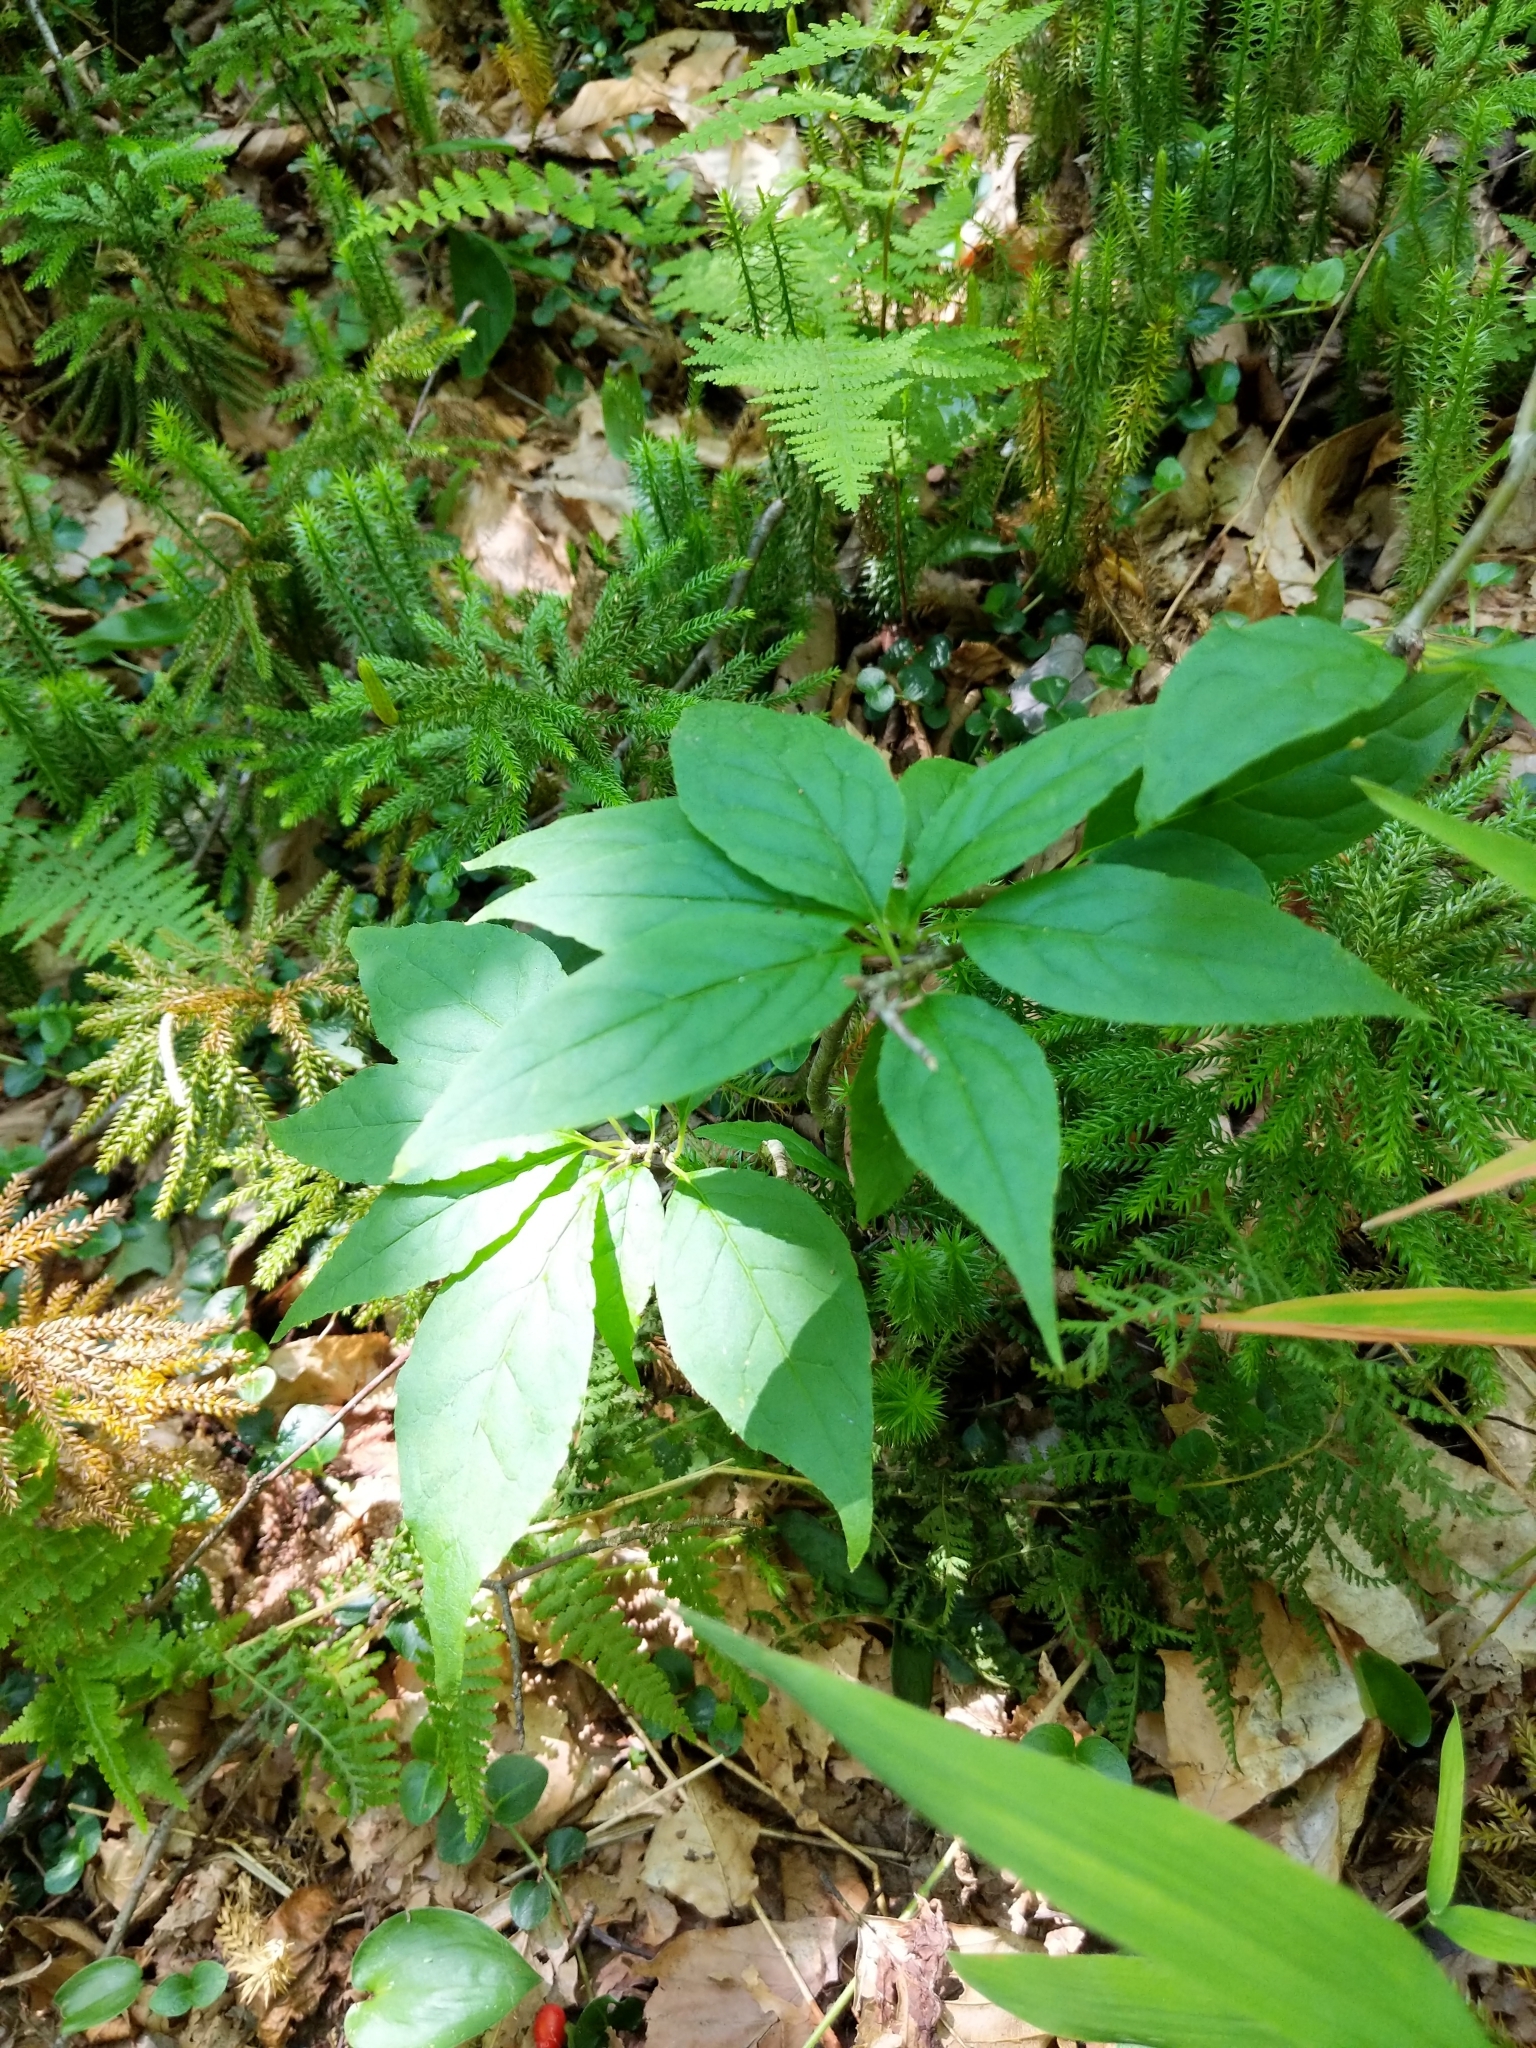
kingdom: Plantae
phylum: Tracheophyta
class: Magnoliopsida
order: Aquifoliales
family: Aquifoliaceae
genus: Ilex
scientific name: Ilex montana
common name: Mountain winterberry
